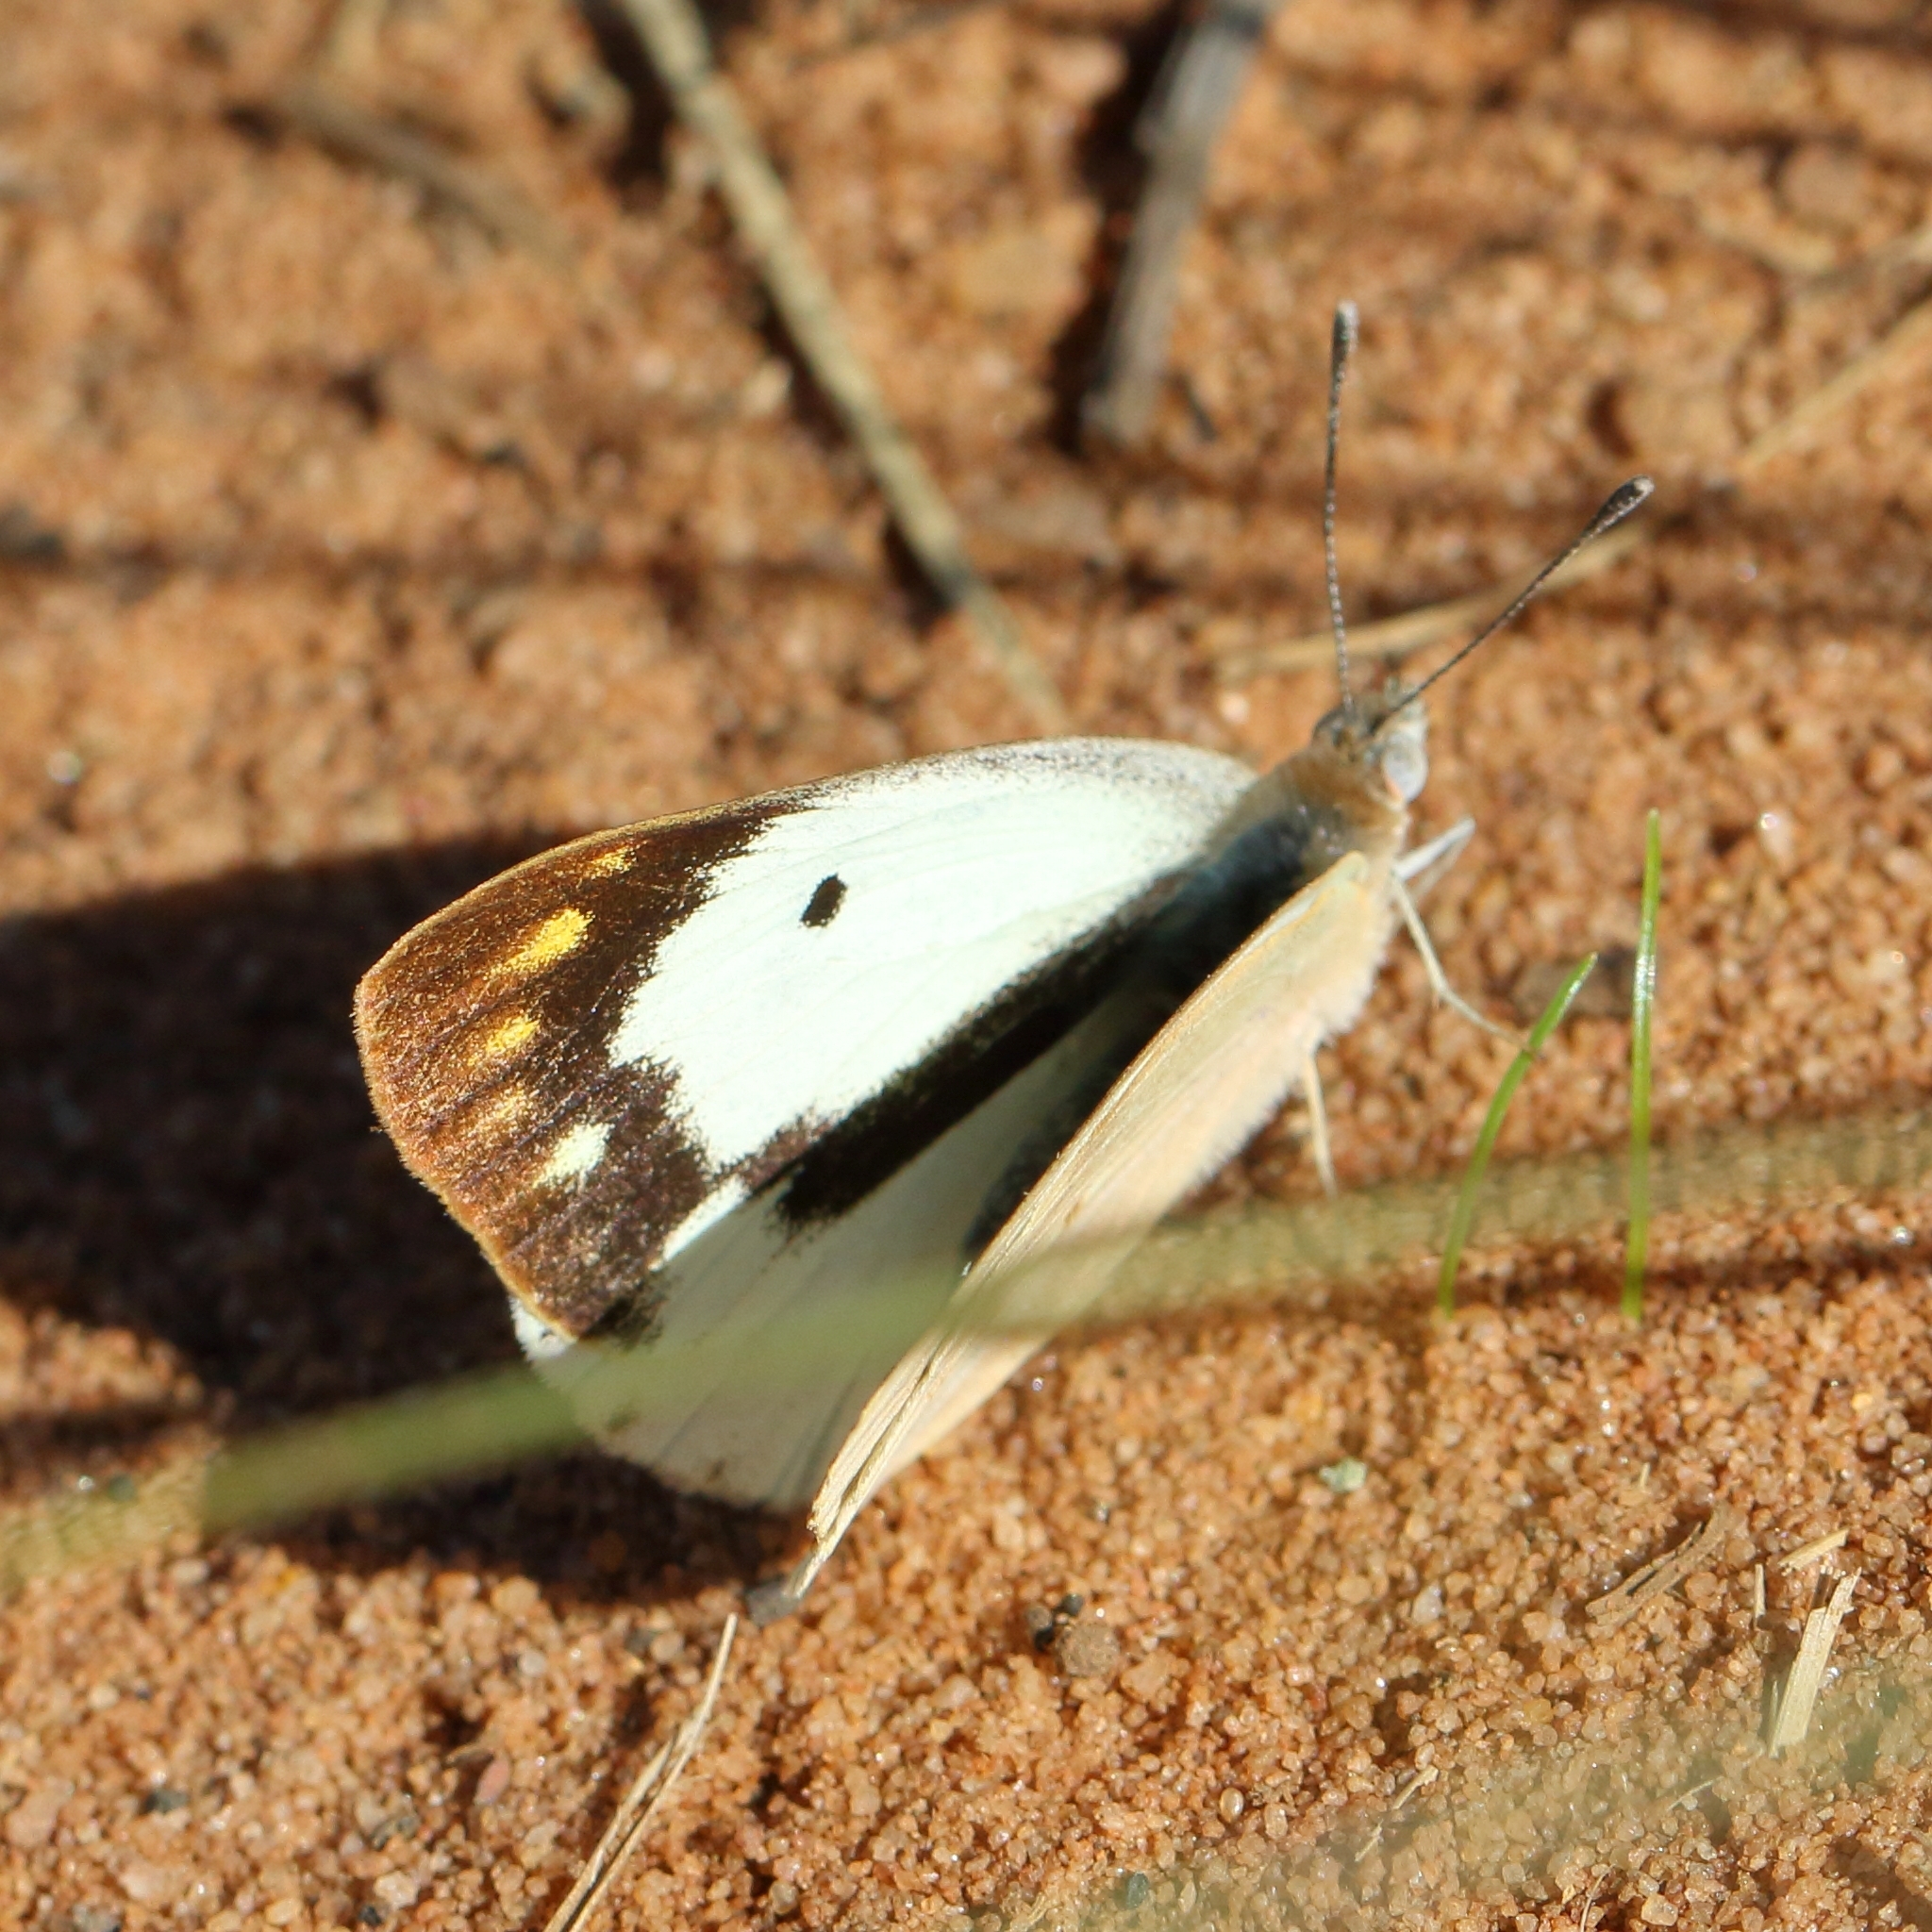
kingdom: Animalia
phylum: Arthropoda
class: Insecta
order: Lepidoptera
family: Pieridae
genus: Colotis
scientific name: Colotis eris
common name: Banded gold tip
